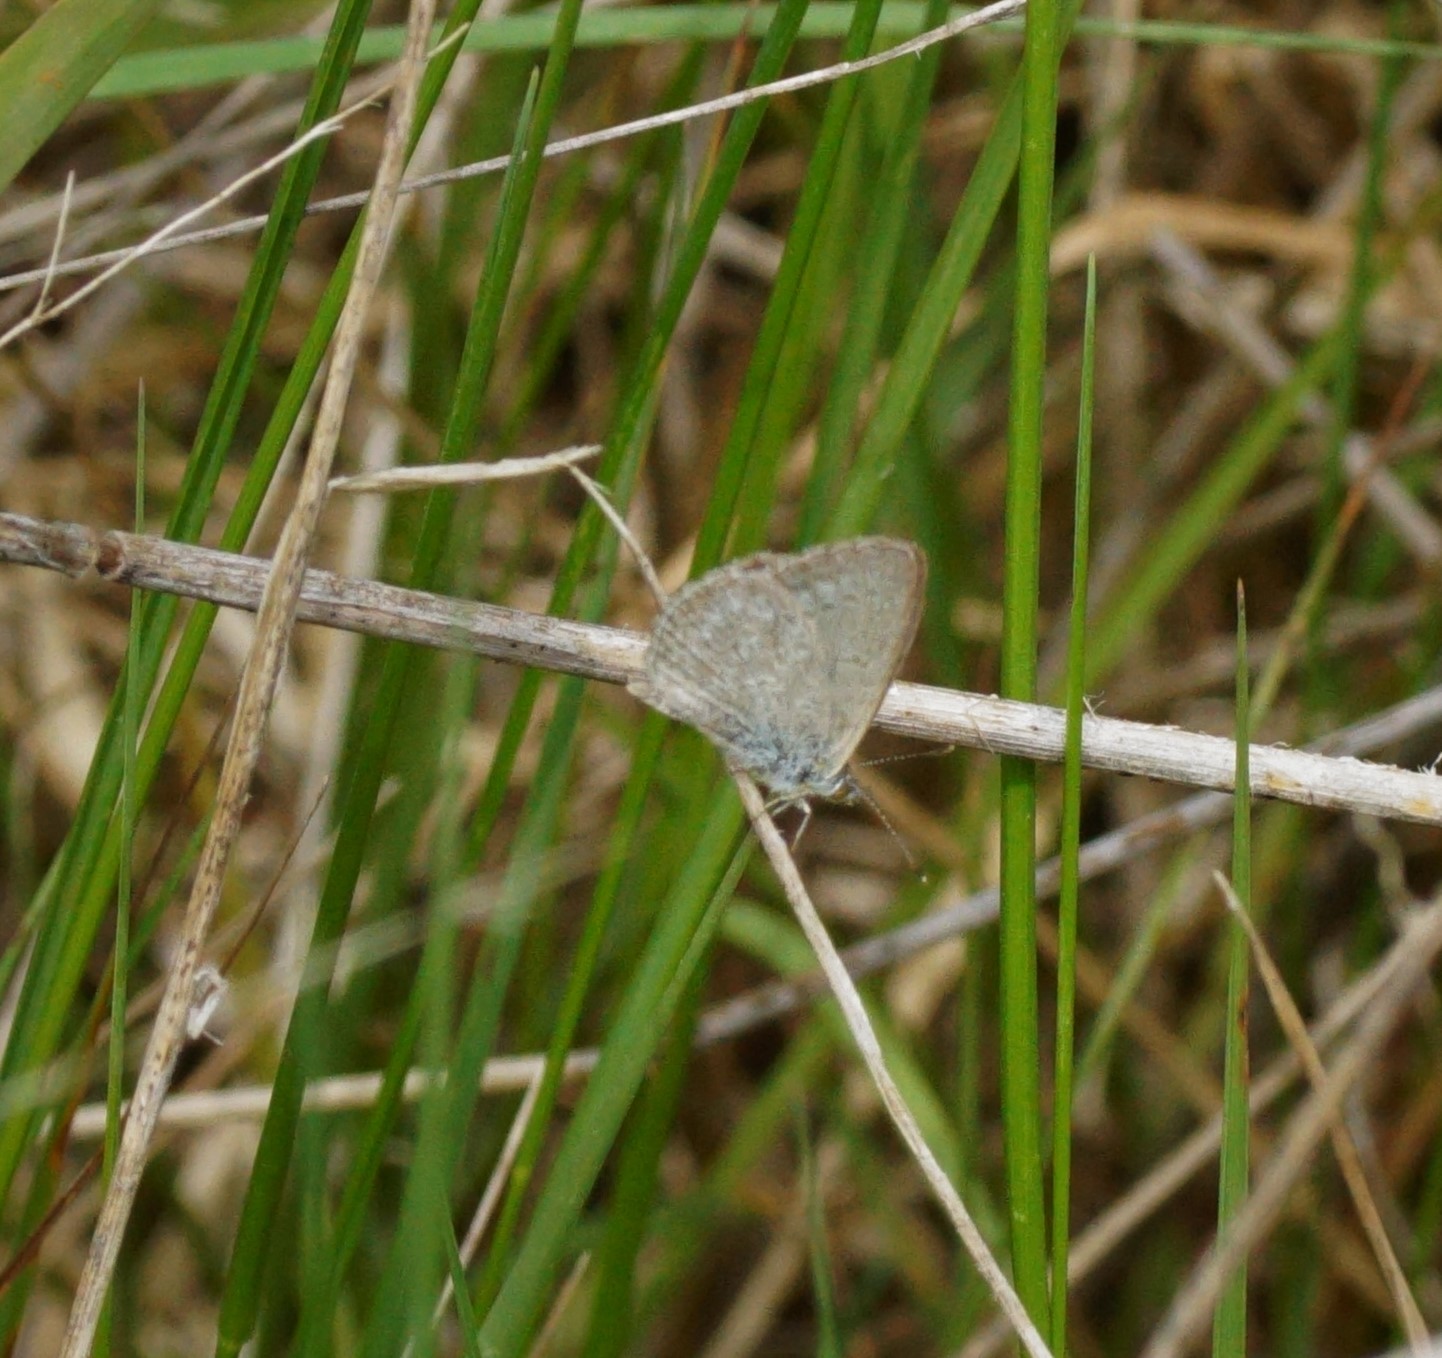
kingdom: Animalia
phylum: Arthropoda
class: Insecta
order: Lepidoptera
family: Lycaenidae
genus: Zizina
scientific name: Zizina otis
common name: Lesser grass blue
